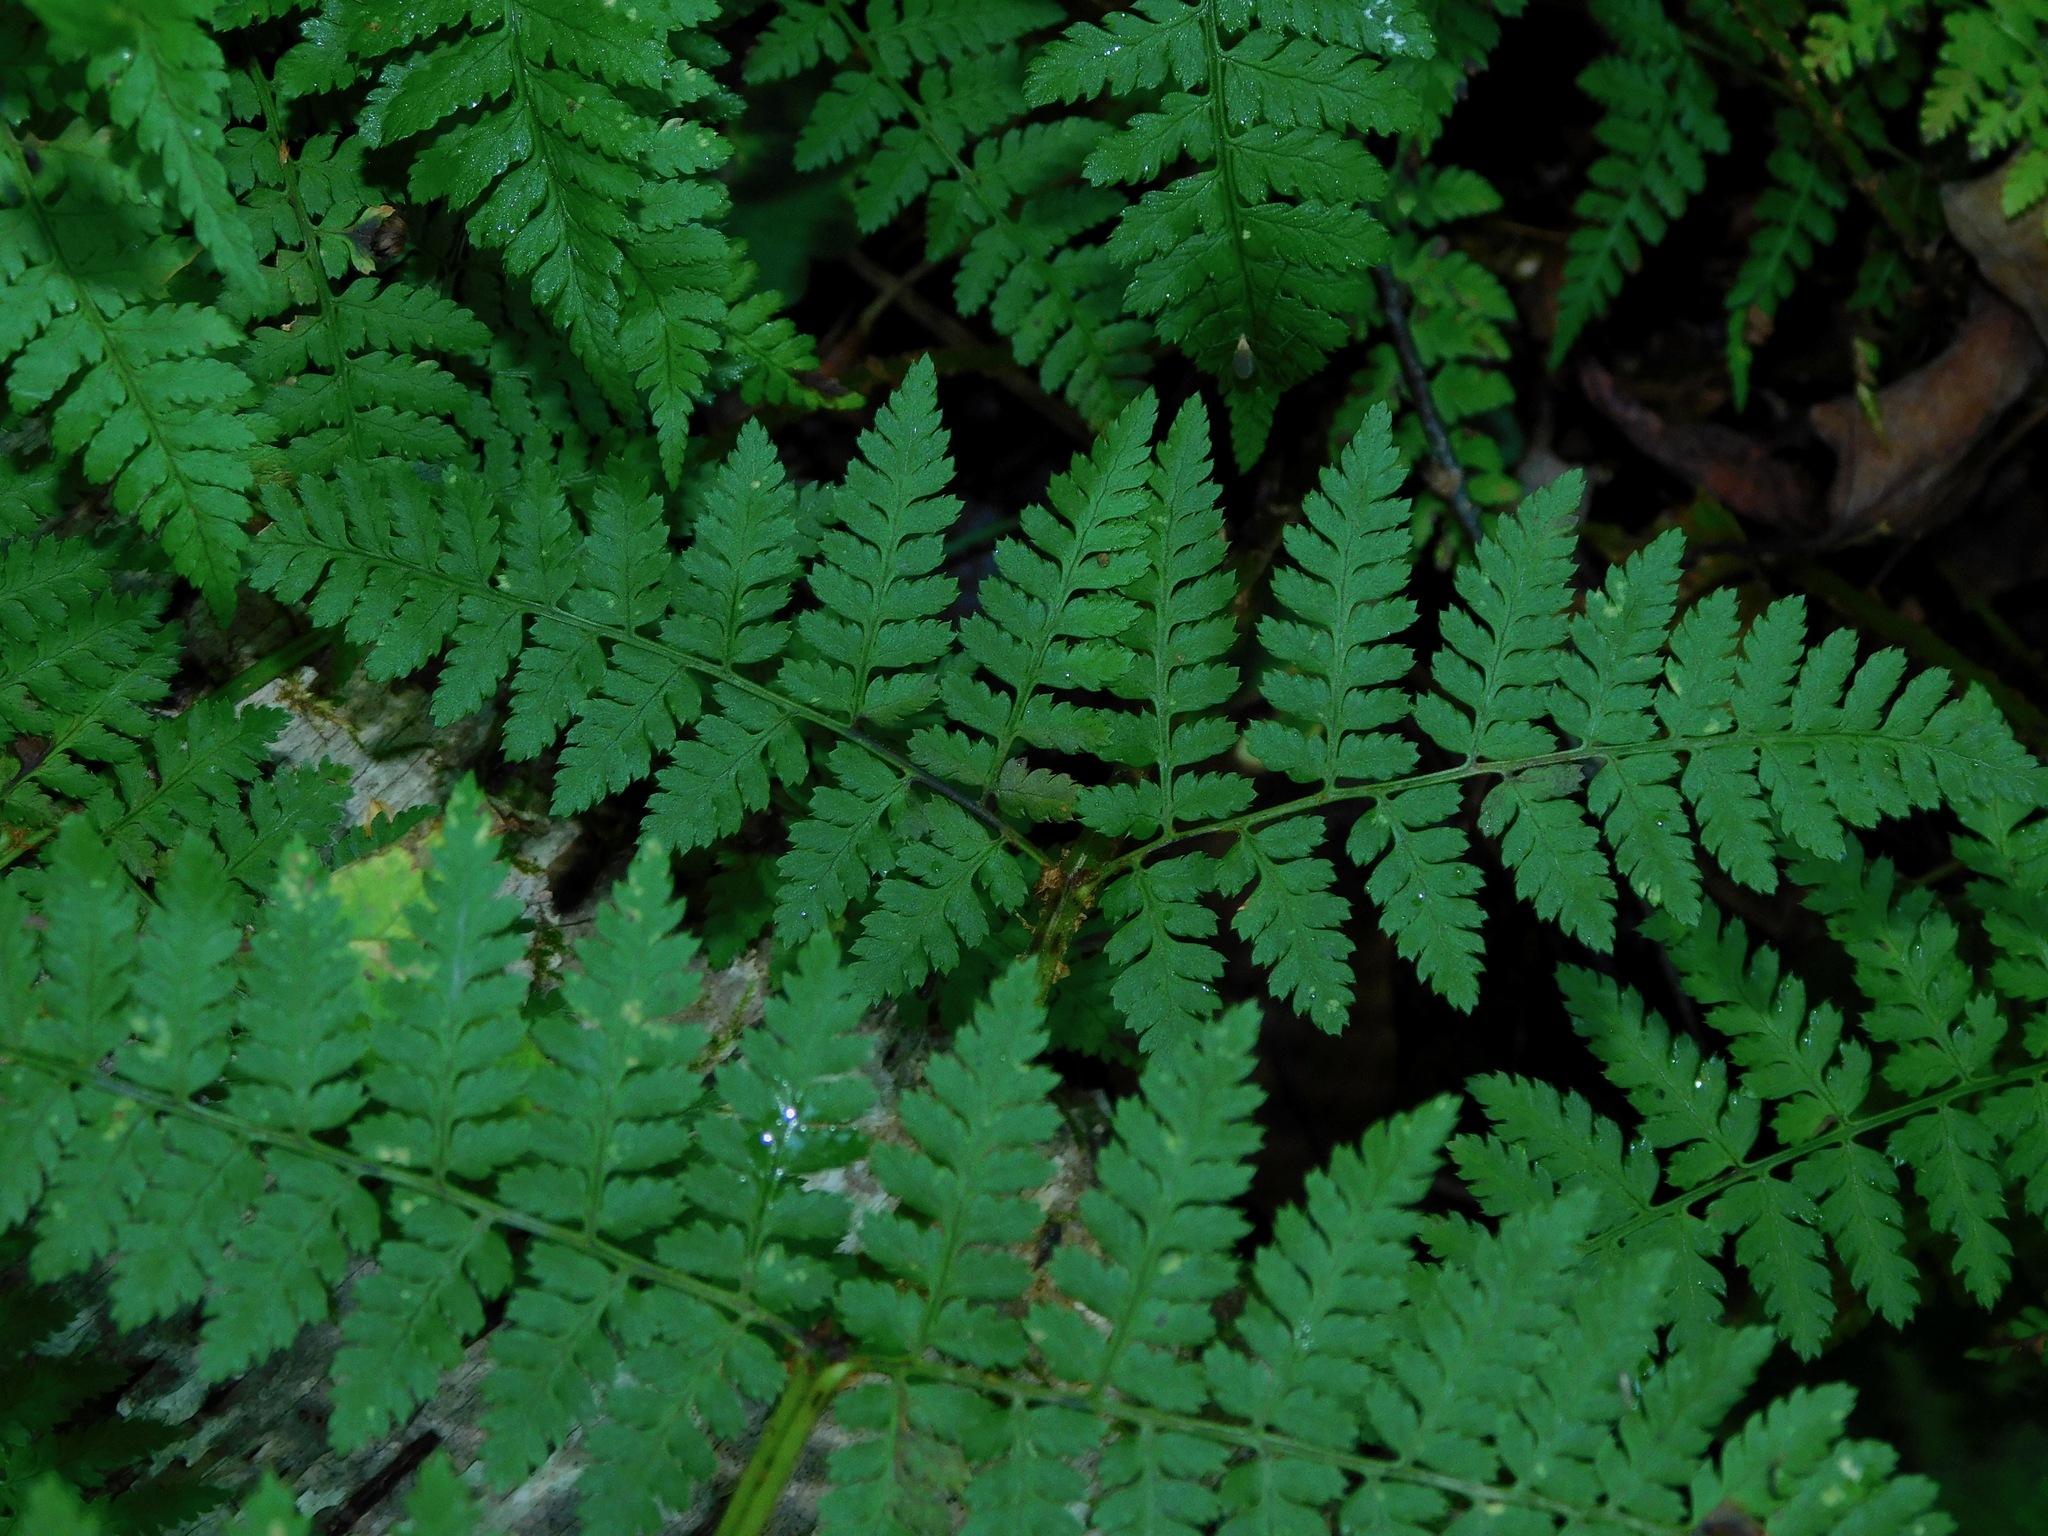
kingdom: Plantae
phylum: Tracheophyta
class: Polypodiopsida
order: Polypodiales
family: Dryopteridaceae
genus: Dryopteris
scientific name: Dryopteris intermedia
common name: Evergreen wood fern
